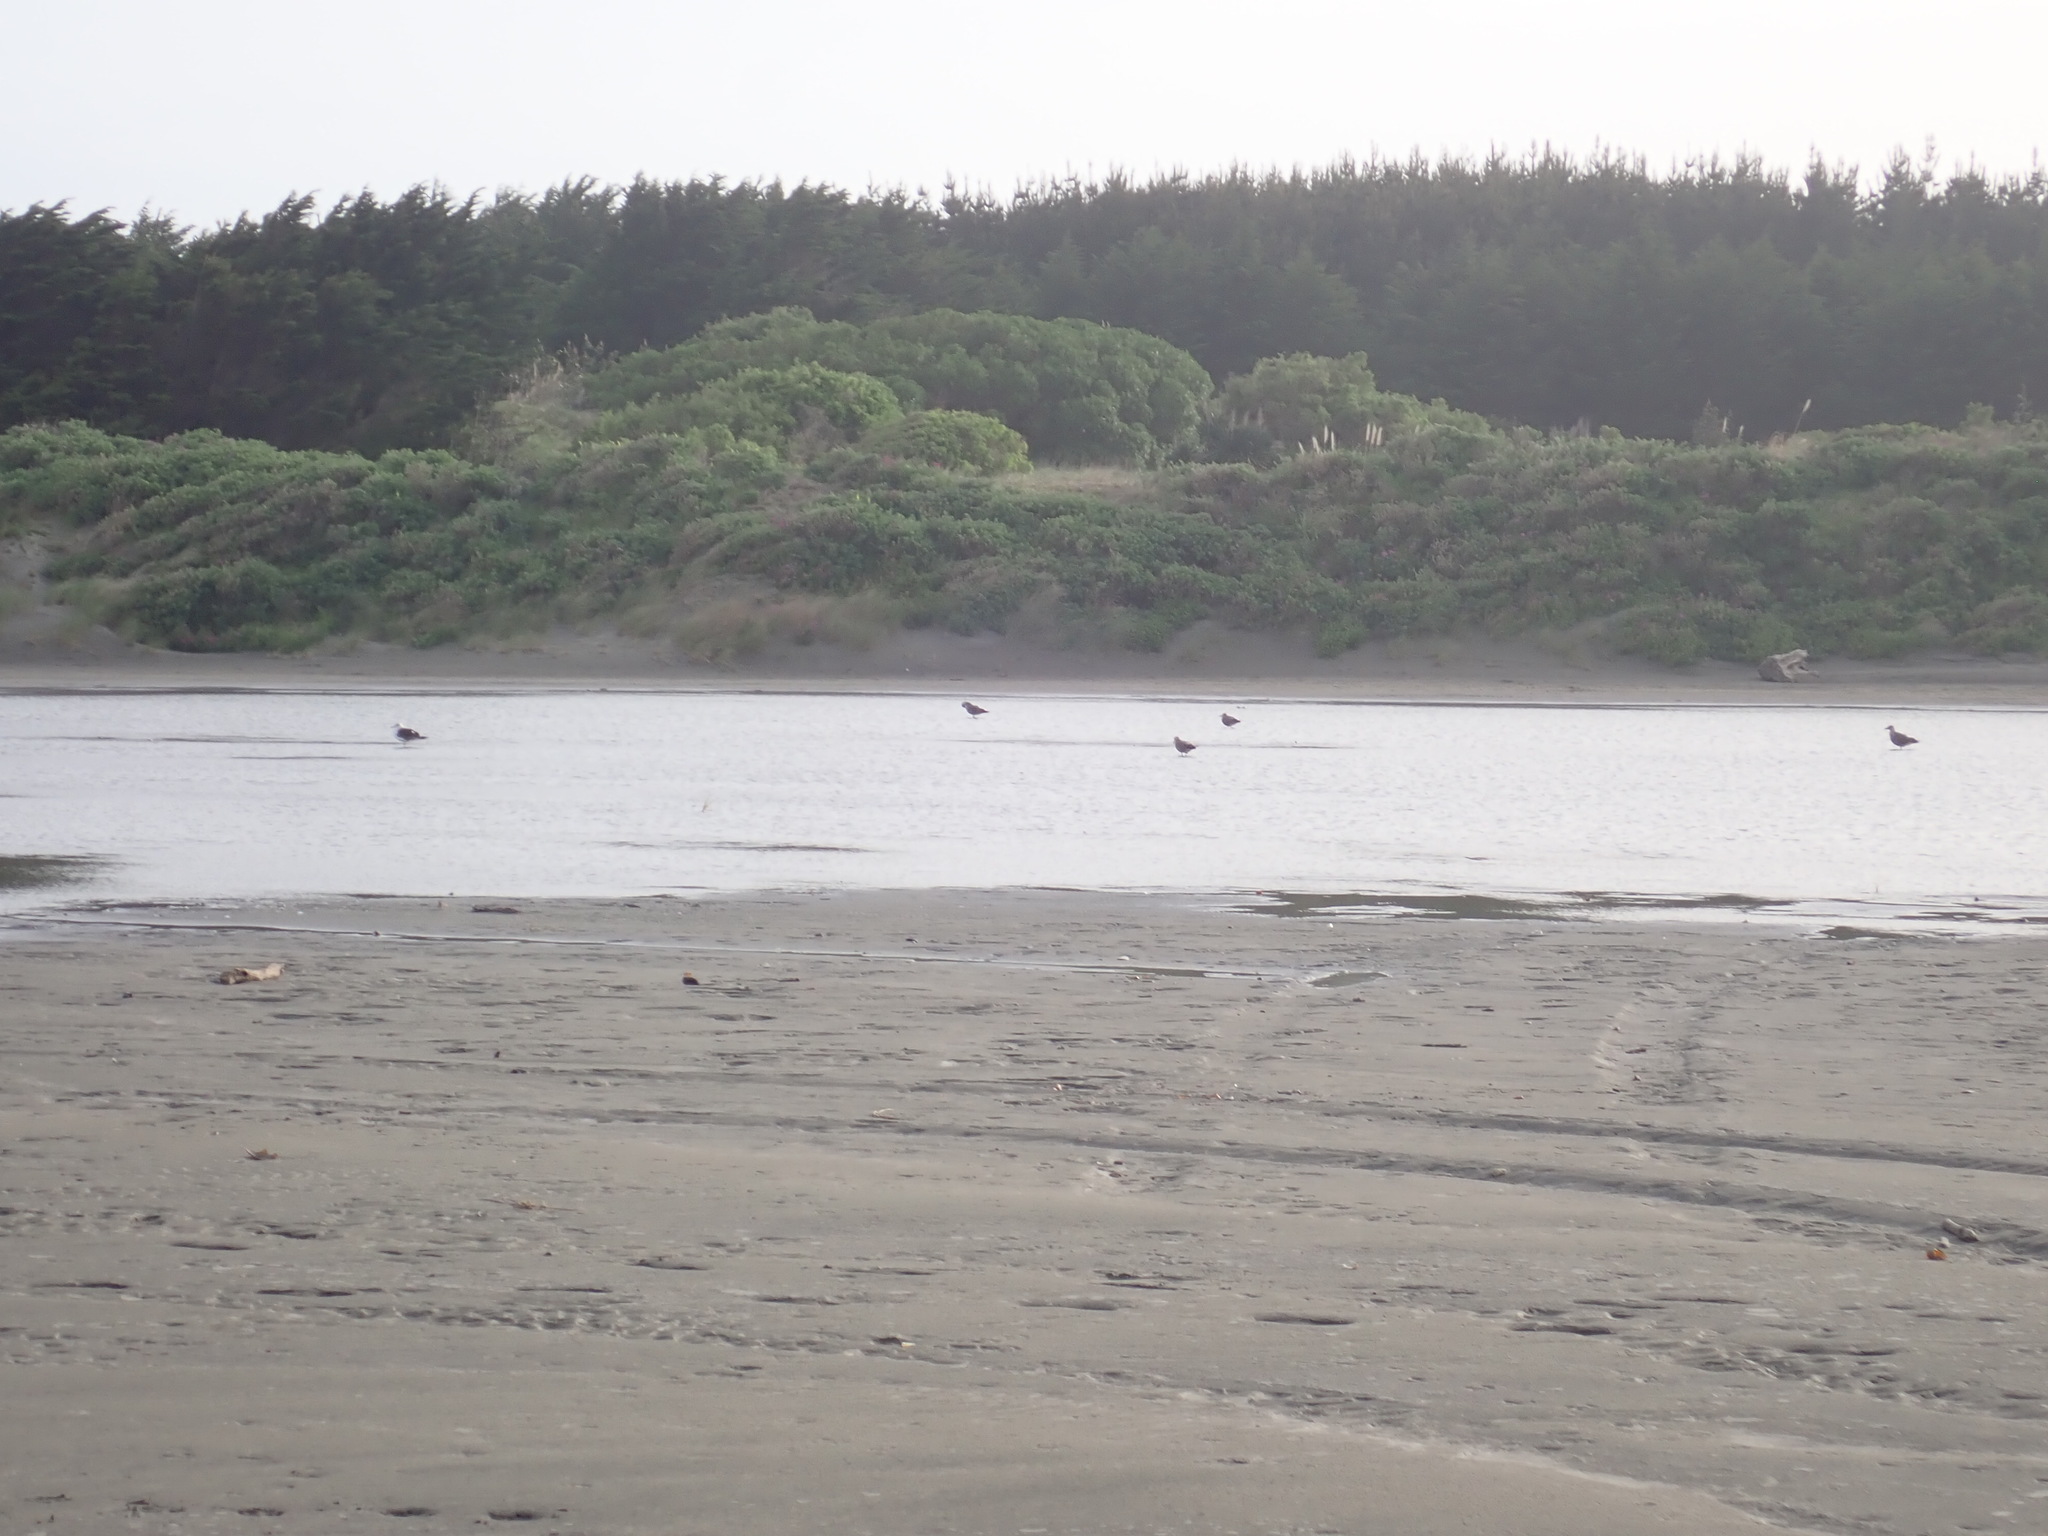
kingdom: Animalia
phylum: Chordata
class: Aves
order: Charadriiformes
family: Laridae
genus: Larus
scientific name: Larus dominicanus
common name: Kelp gull
